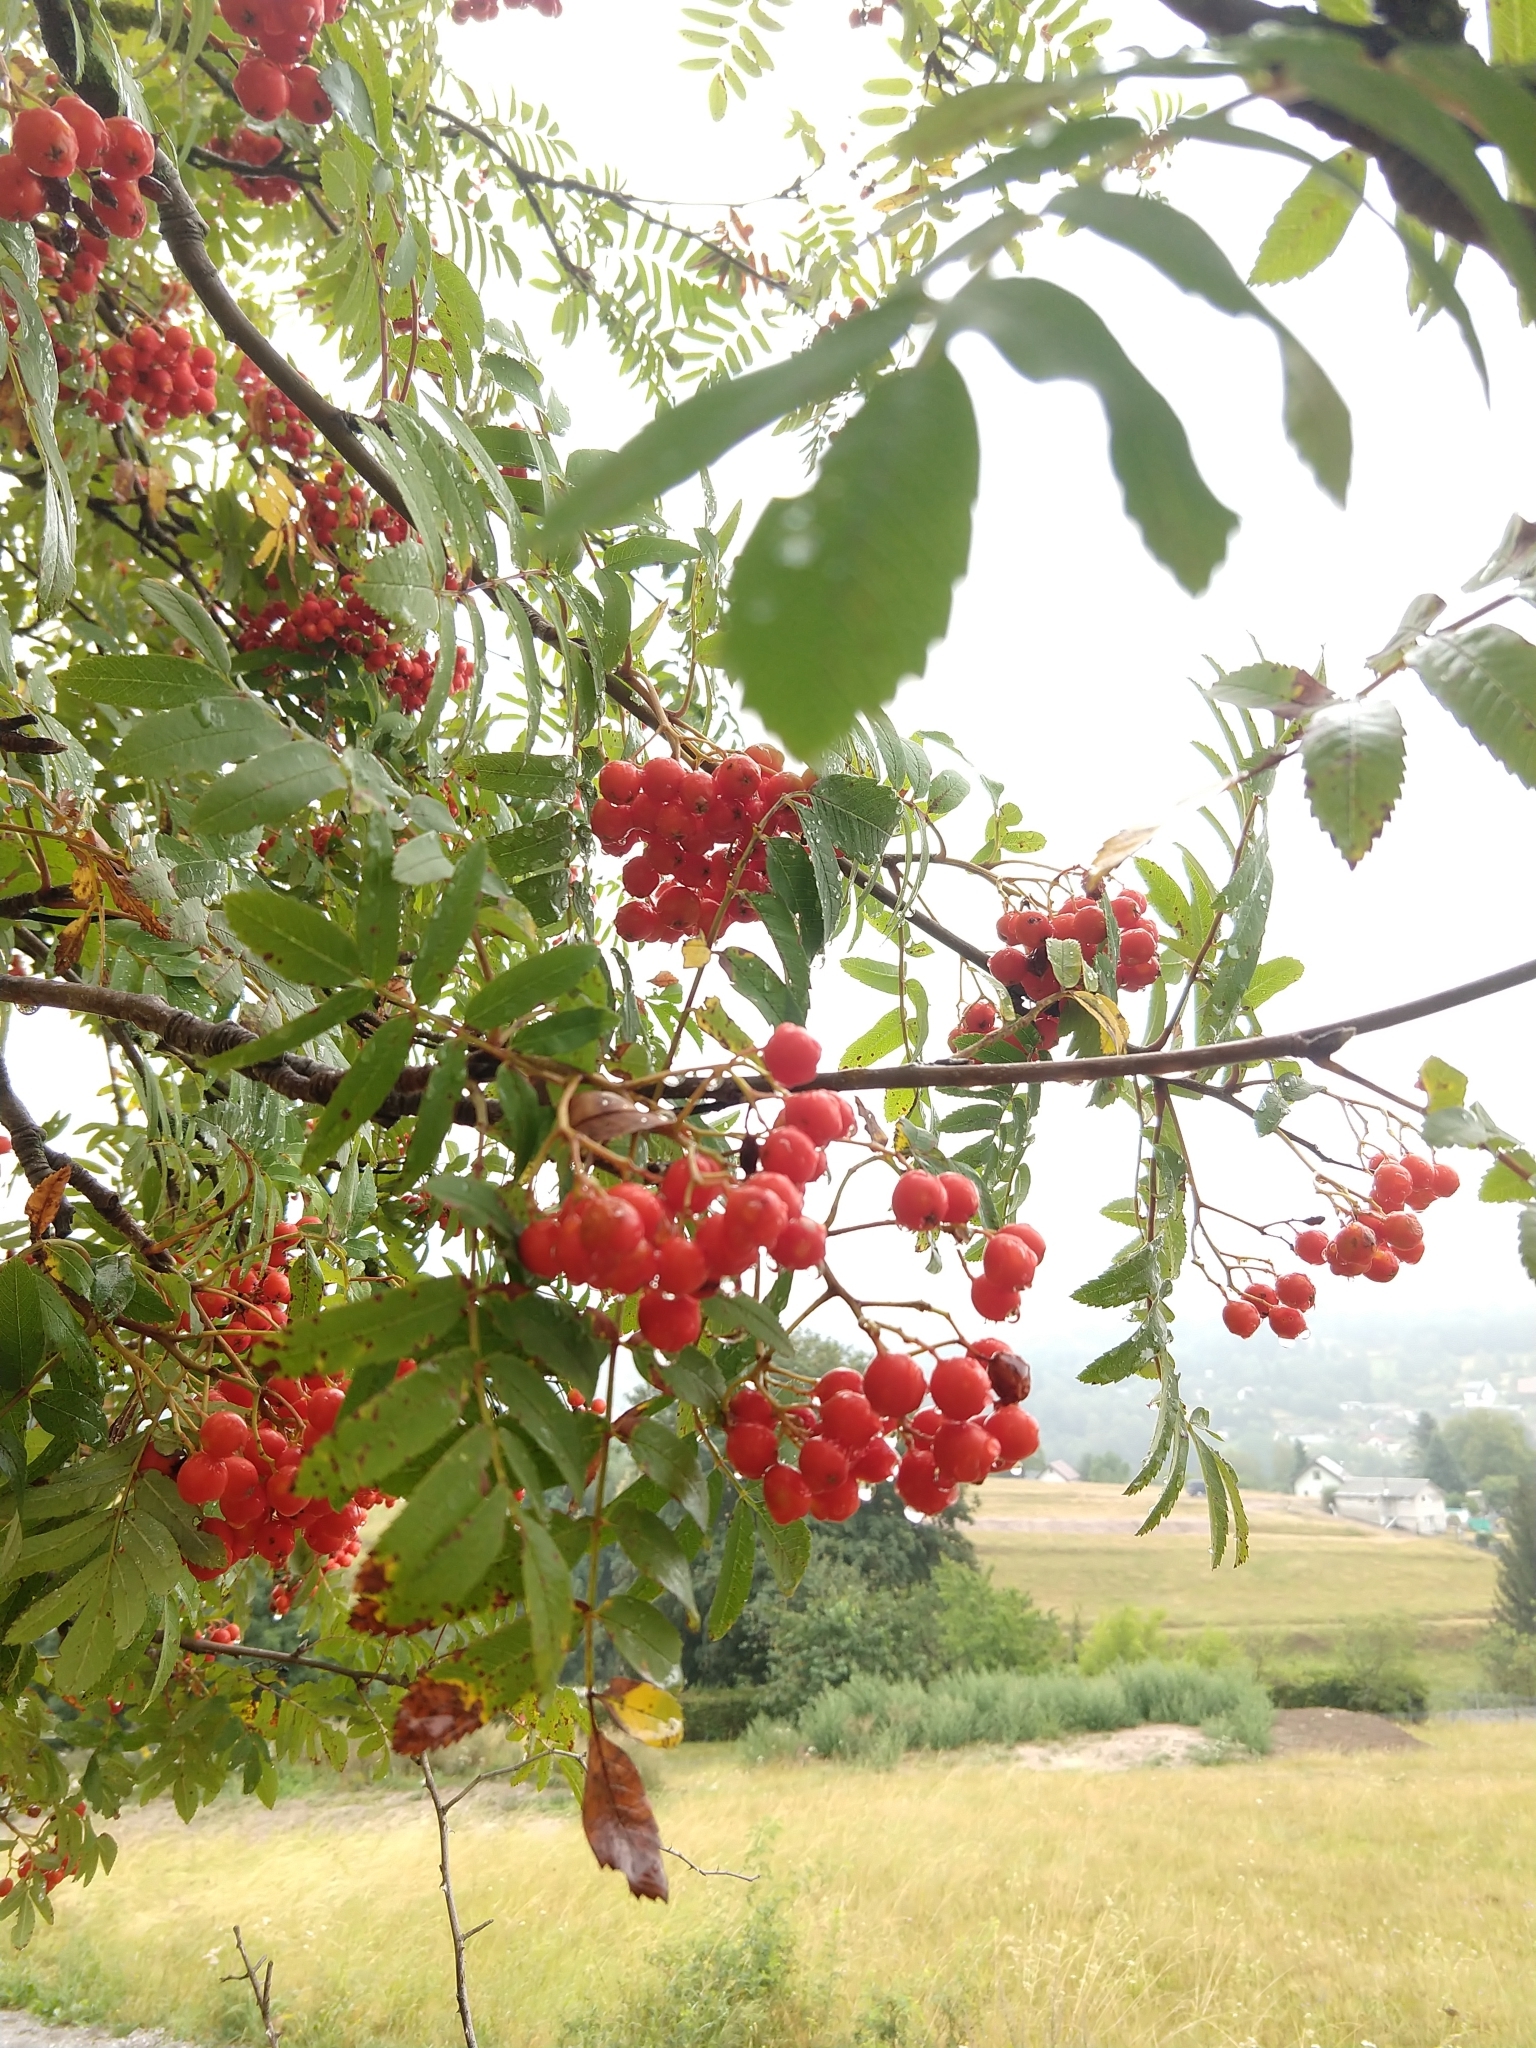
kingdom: Plantae
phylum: Tracheophyta
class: Magnoliopsida
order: Rosales
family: Rosaceae
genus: Sorbus
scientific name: Sorbus aucuparia
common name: Rowan
